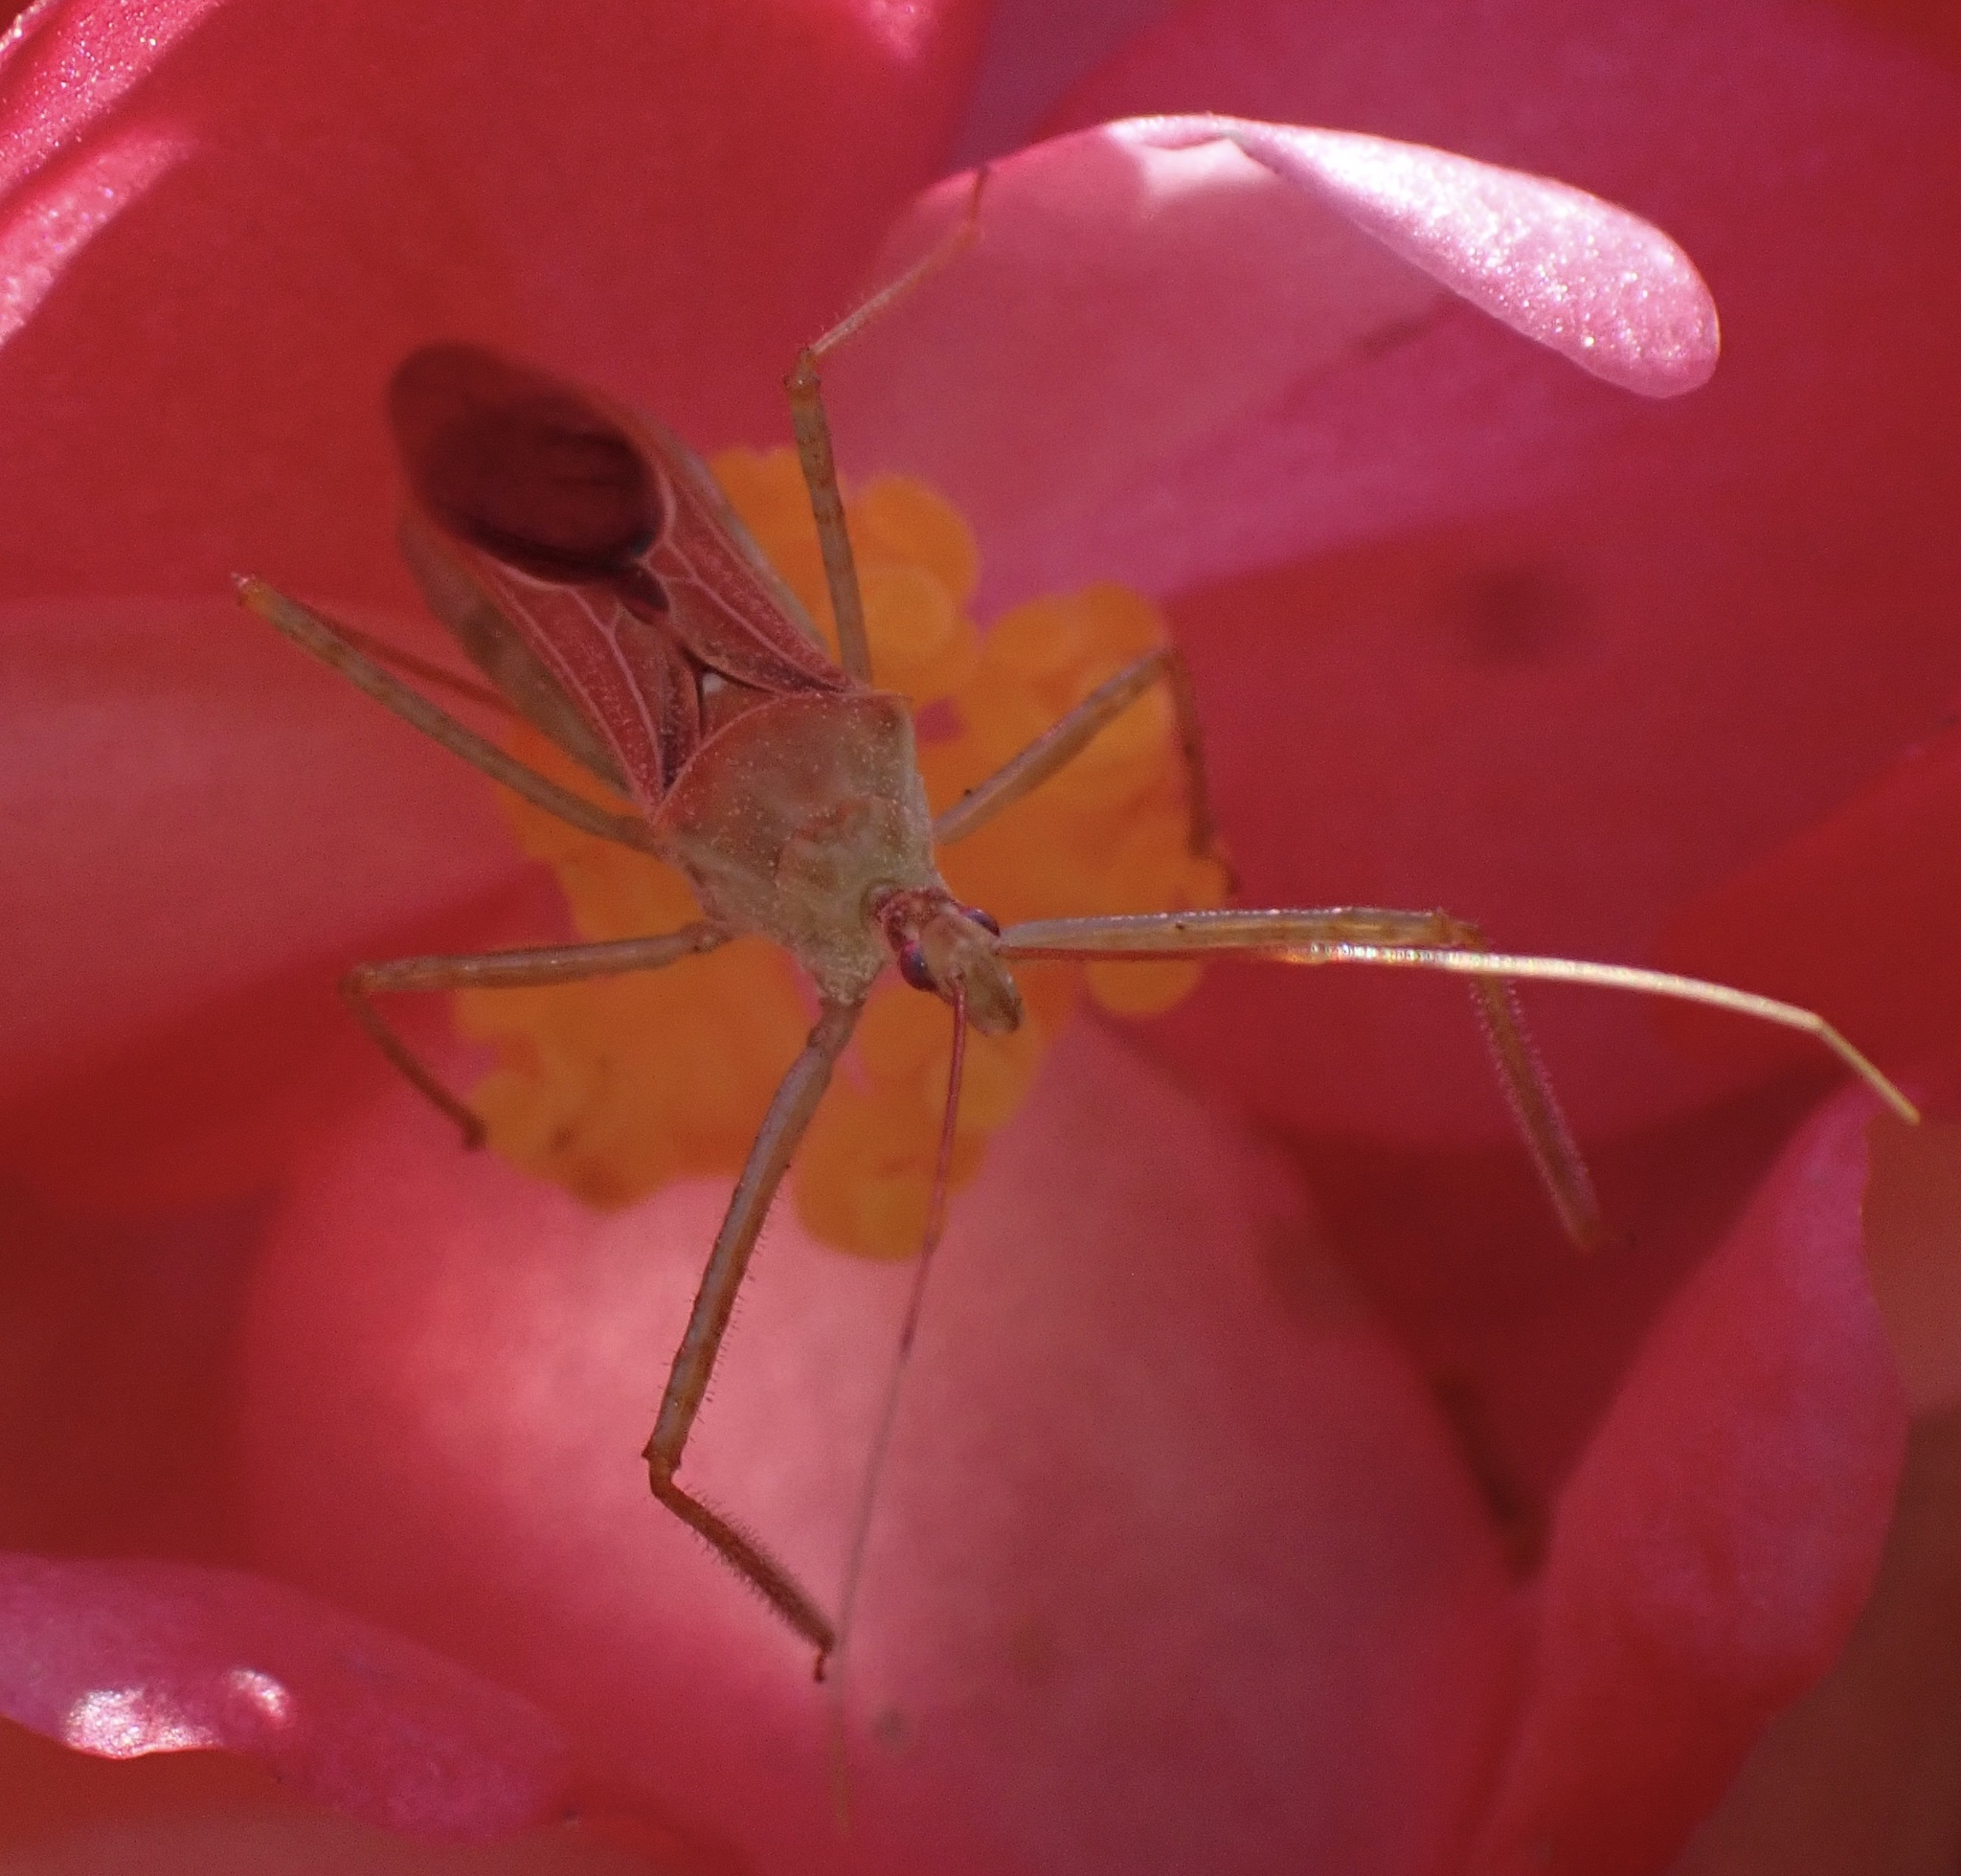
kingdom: Animalia
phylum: Arthropoda
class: Insecta
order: Hemiptera
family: Reduviidae
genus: Zelus
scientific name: Zelus renardii
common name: Assassin bug
